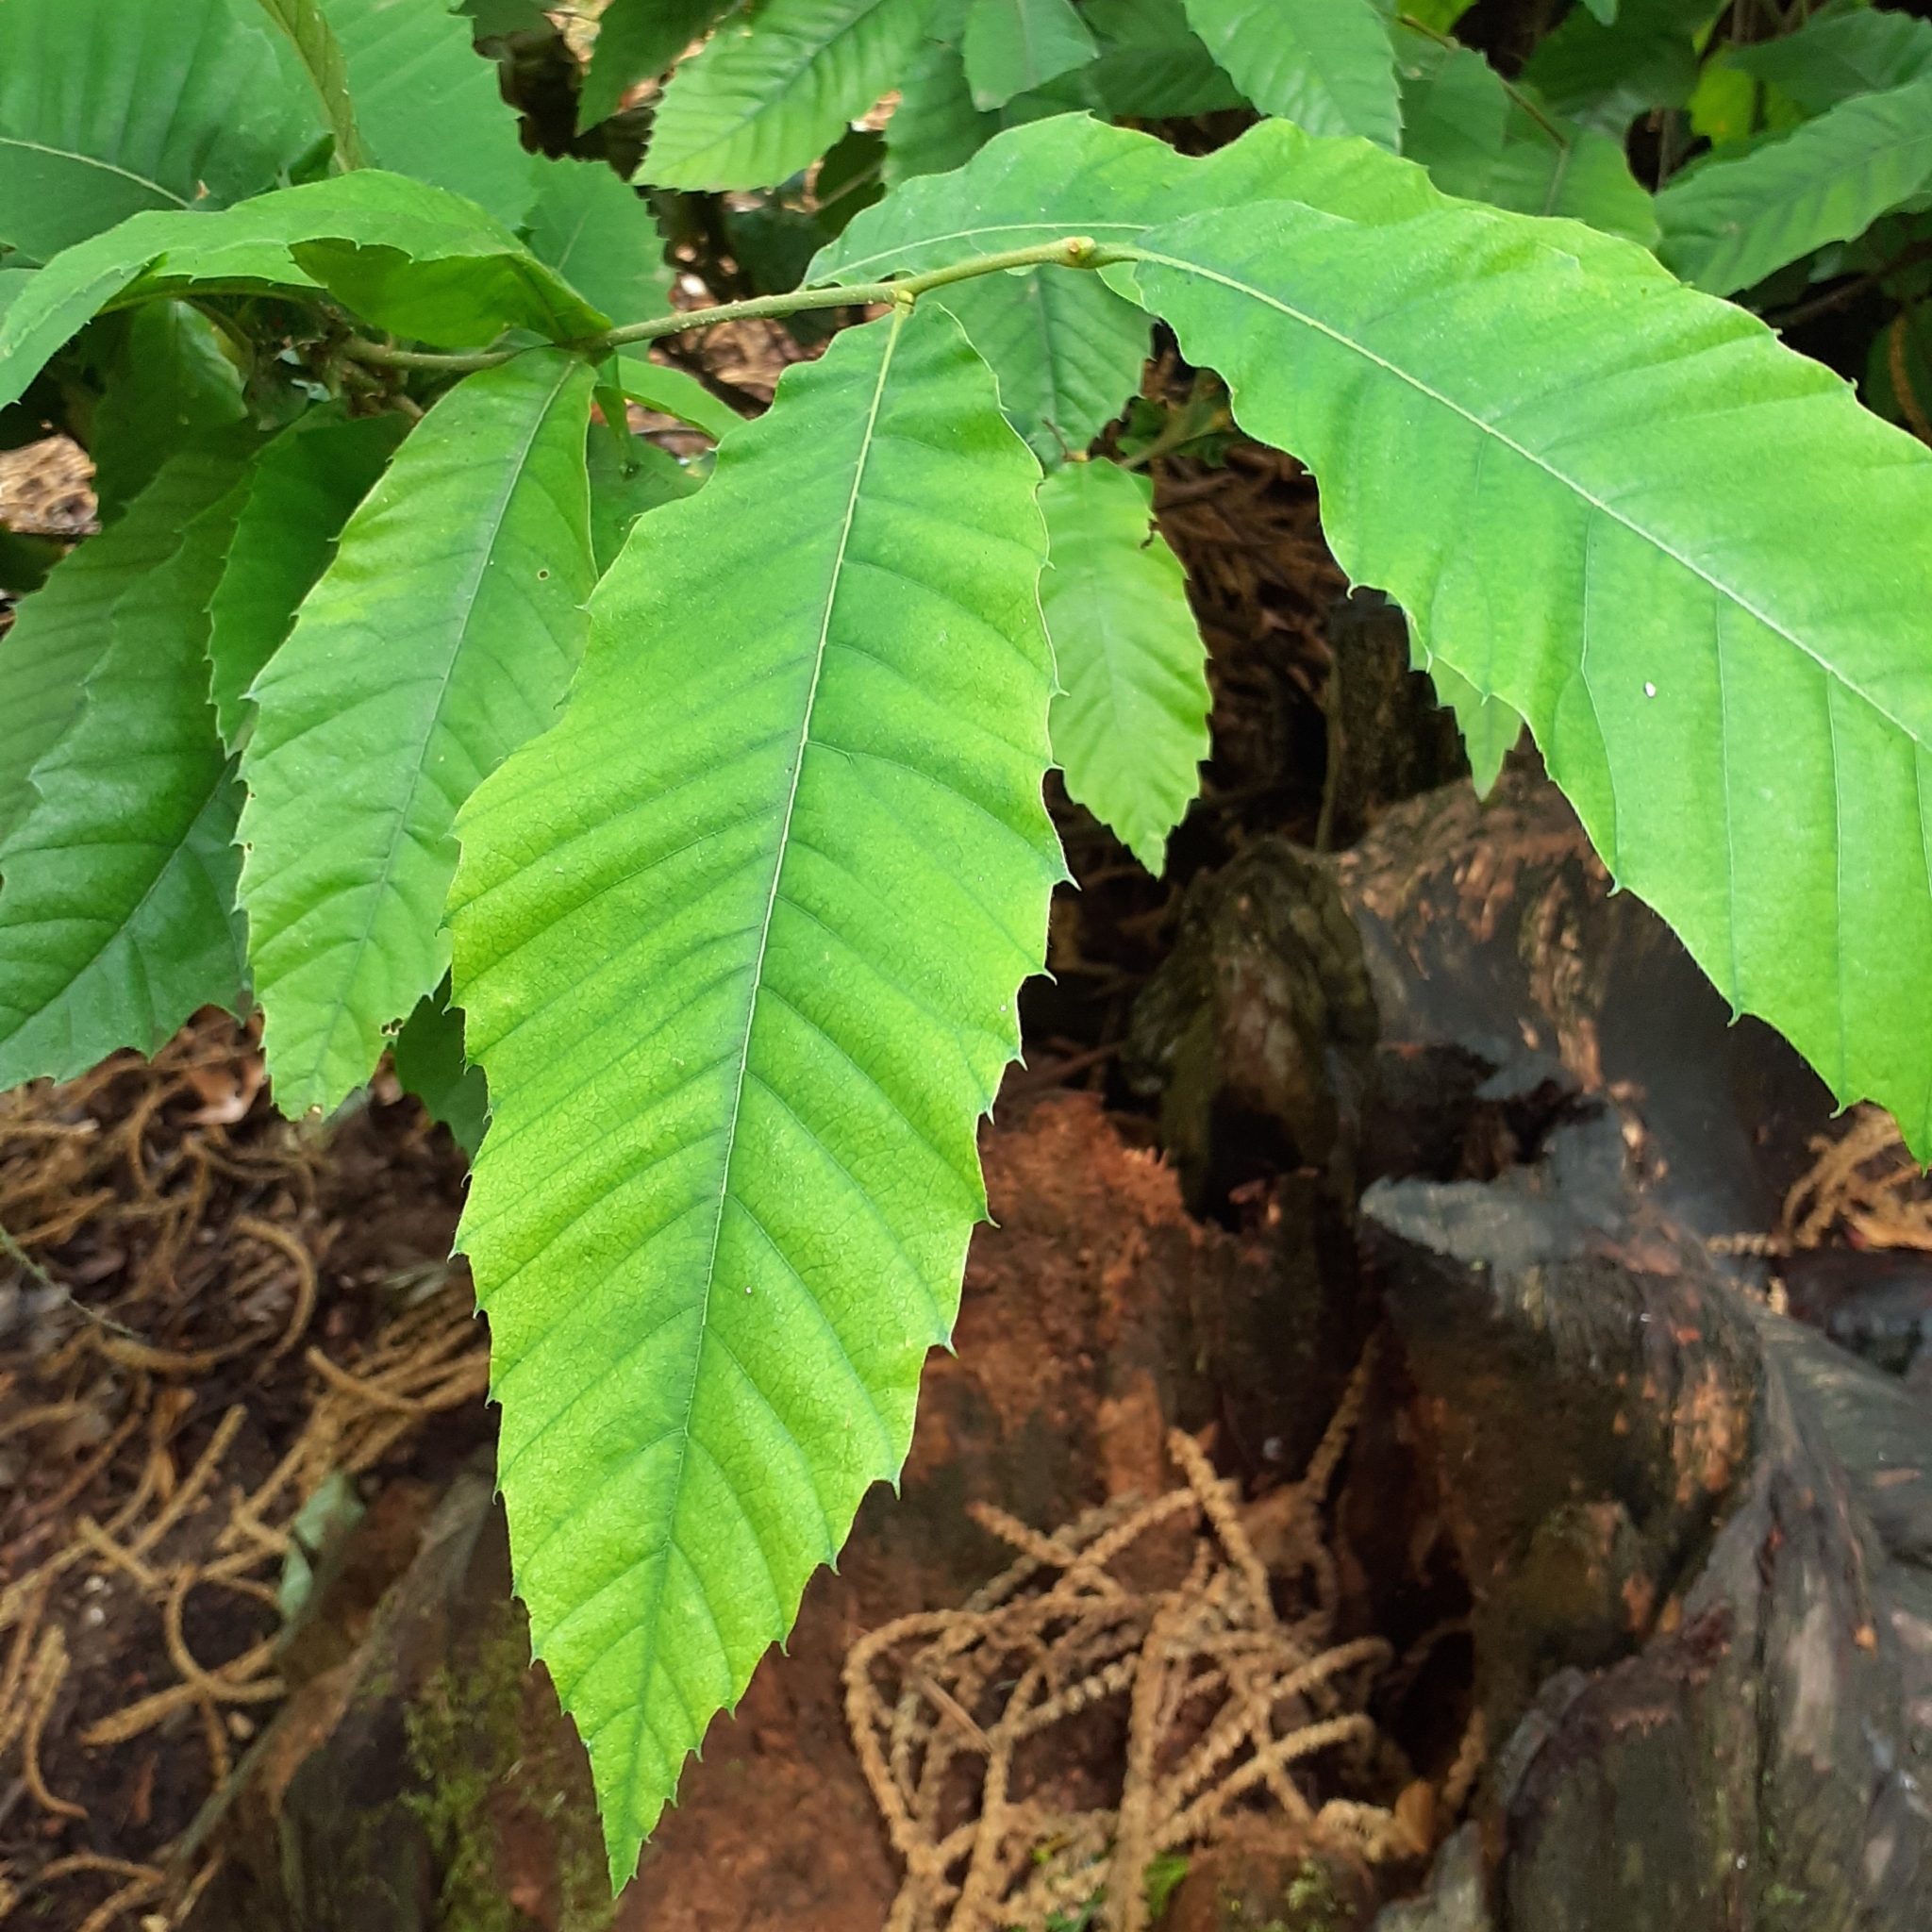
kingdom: Plantae
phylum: Tracheophyta
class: Magnoliopsida
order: Fagales
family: Fagaceae
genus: Castanea
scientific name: Castanea sativa
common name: Sweet chestnut
